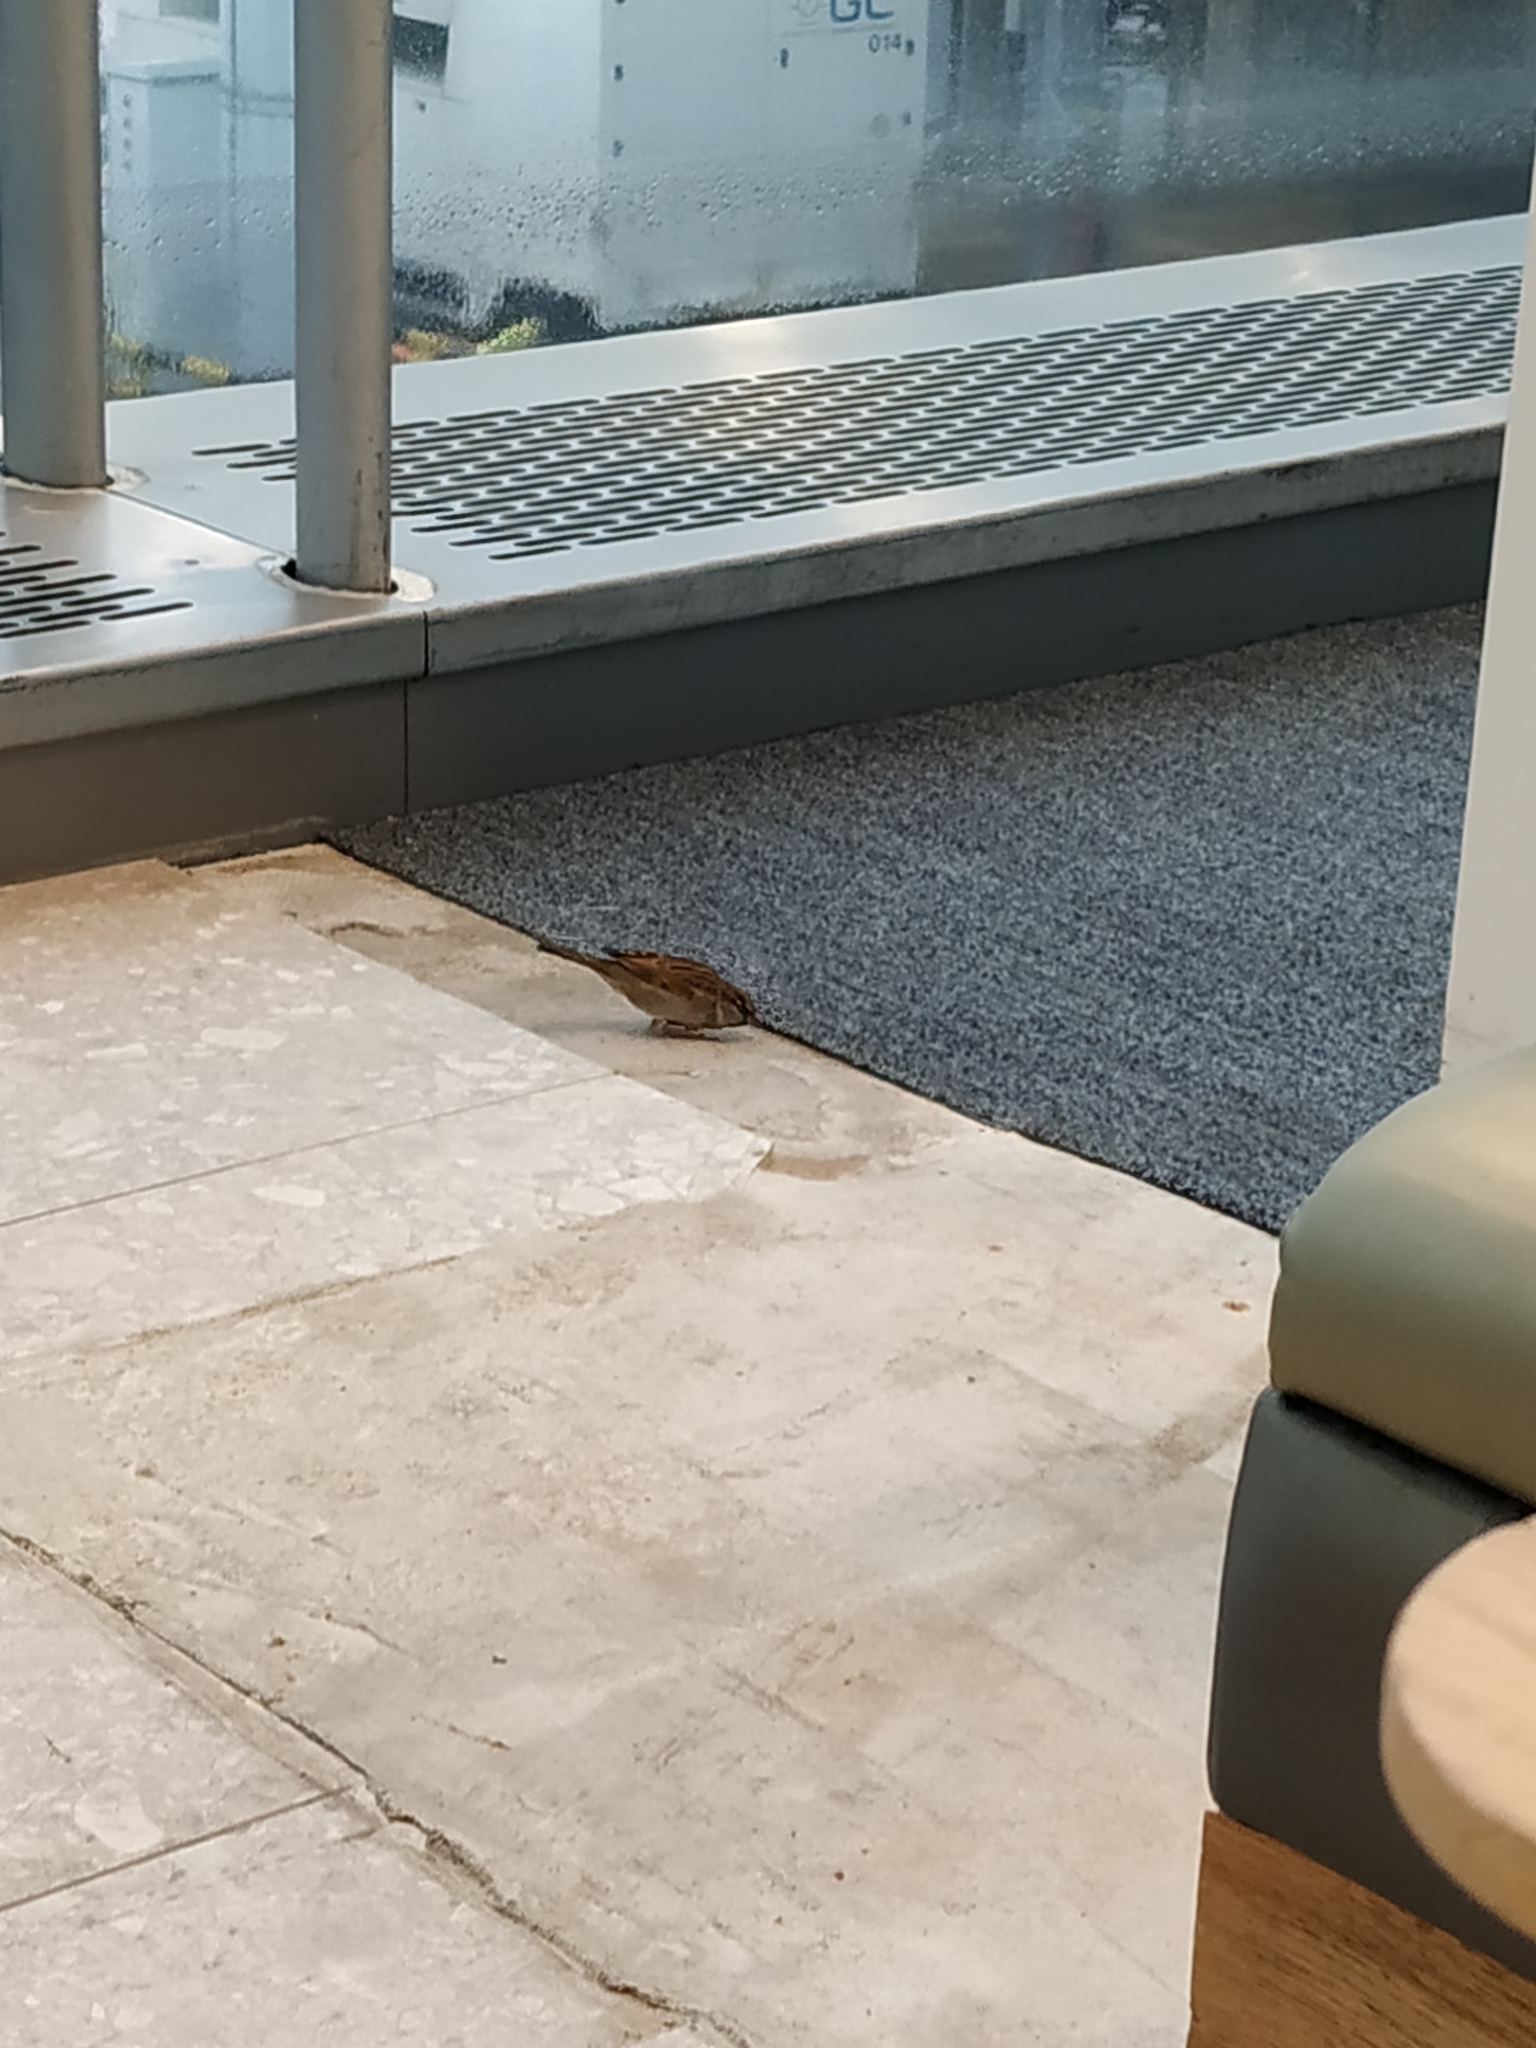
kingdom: Animalia
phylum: Chordata
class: Aves
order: Passeriformes
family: Passeridae
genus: Passer
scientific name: Passer domesticus
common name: House sparrow
